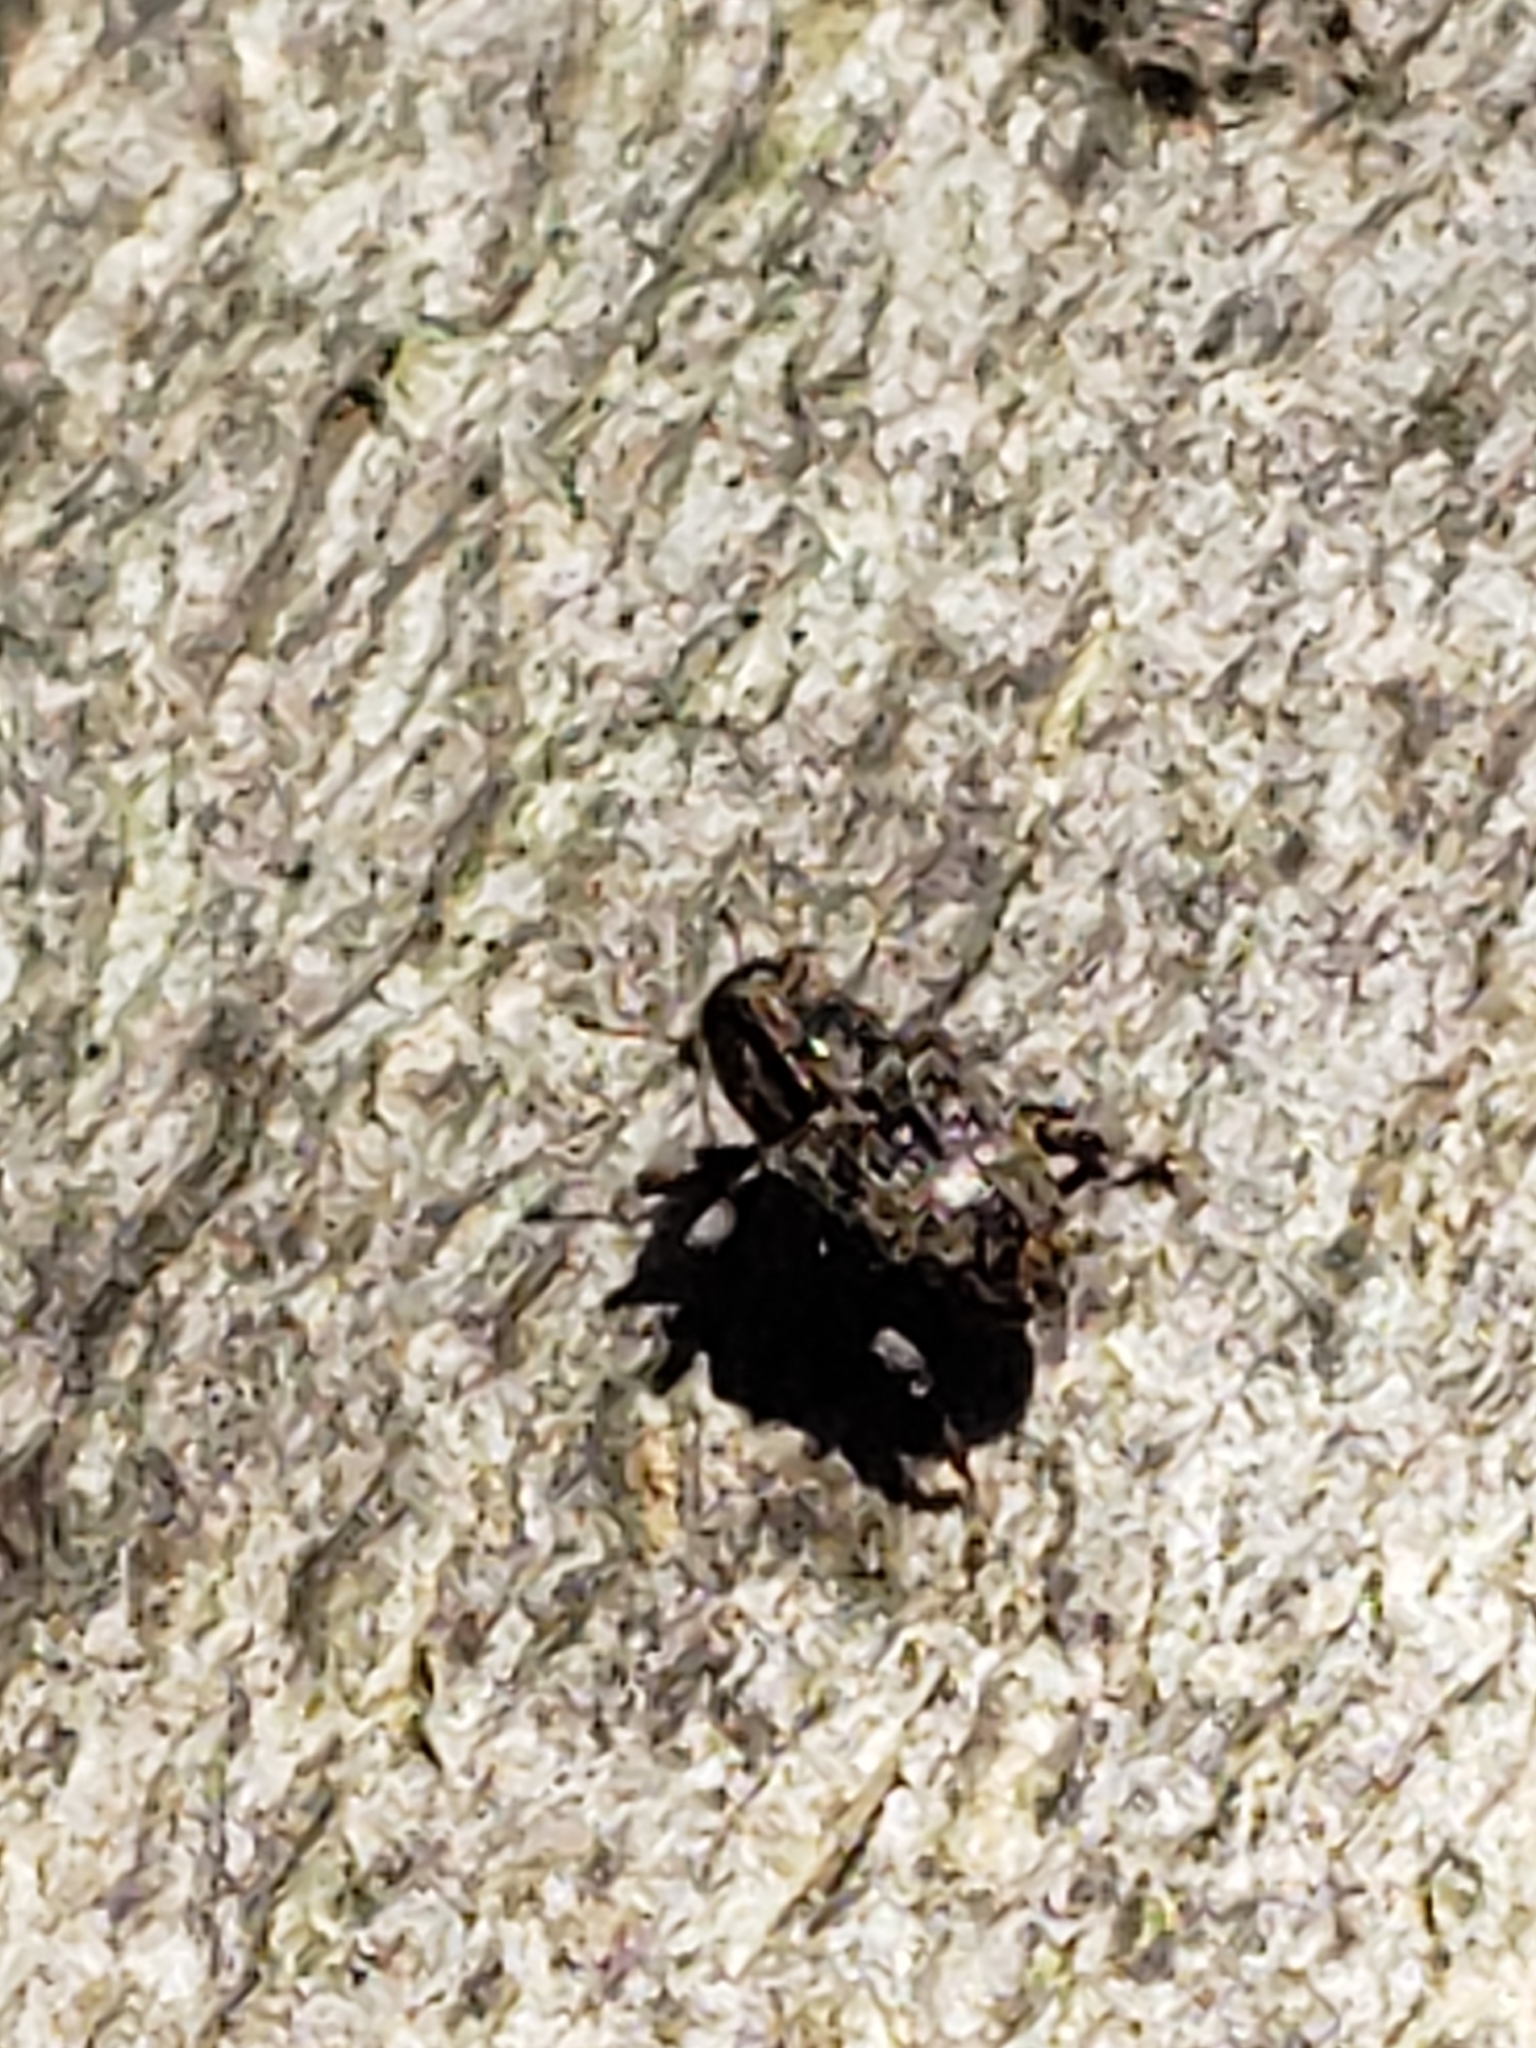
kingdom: Animalia
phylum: Arthropoda
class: Insecta
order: Coleoptera
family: Curculionidae
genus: Lechriops
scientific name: Lechriops oculatus
